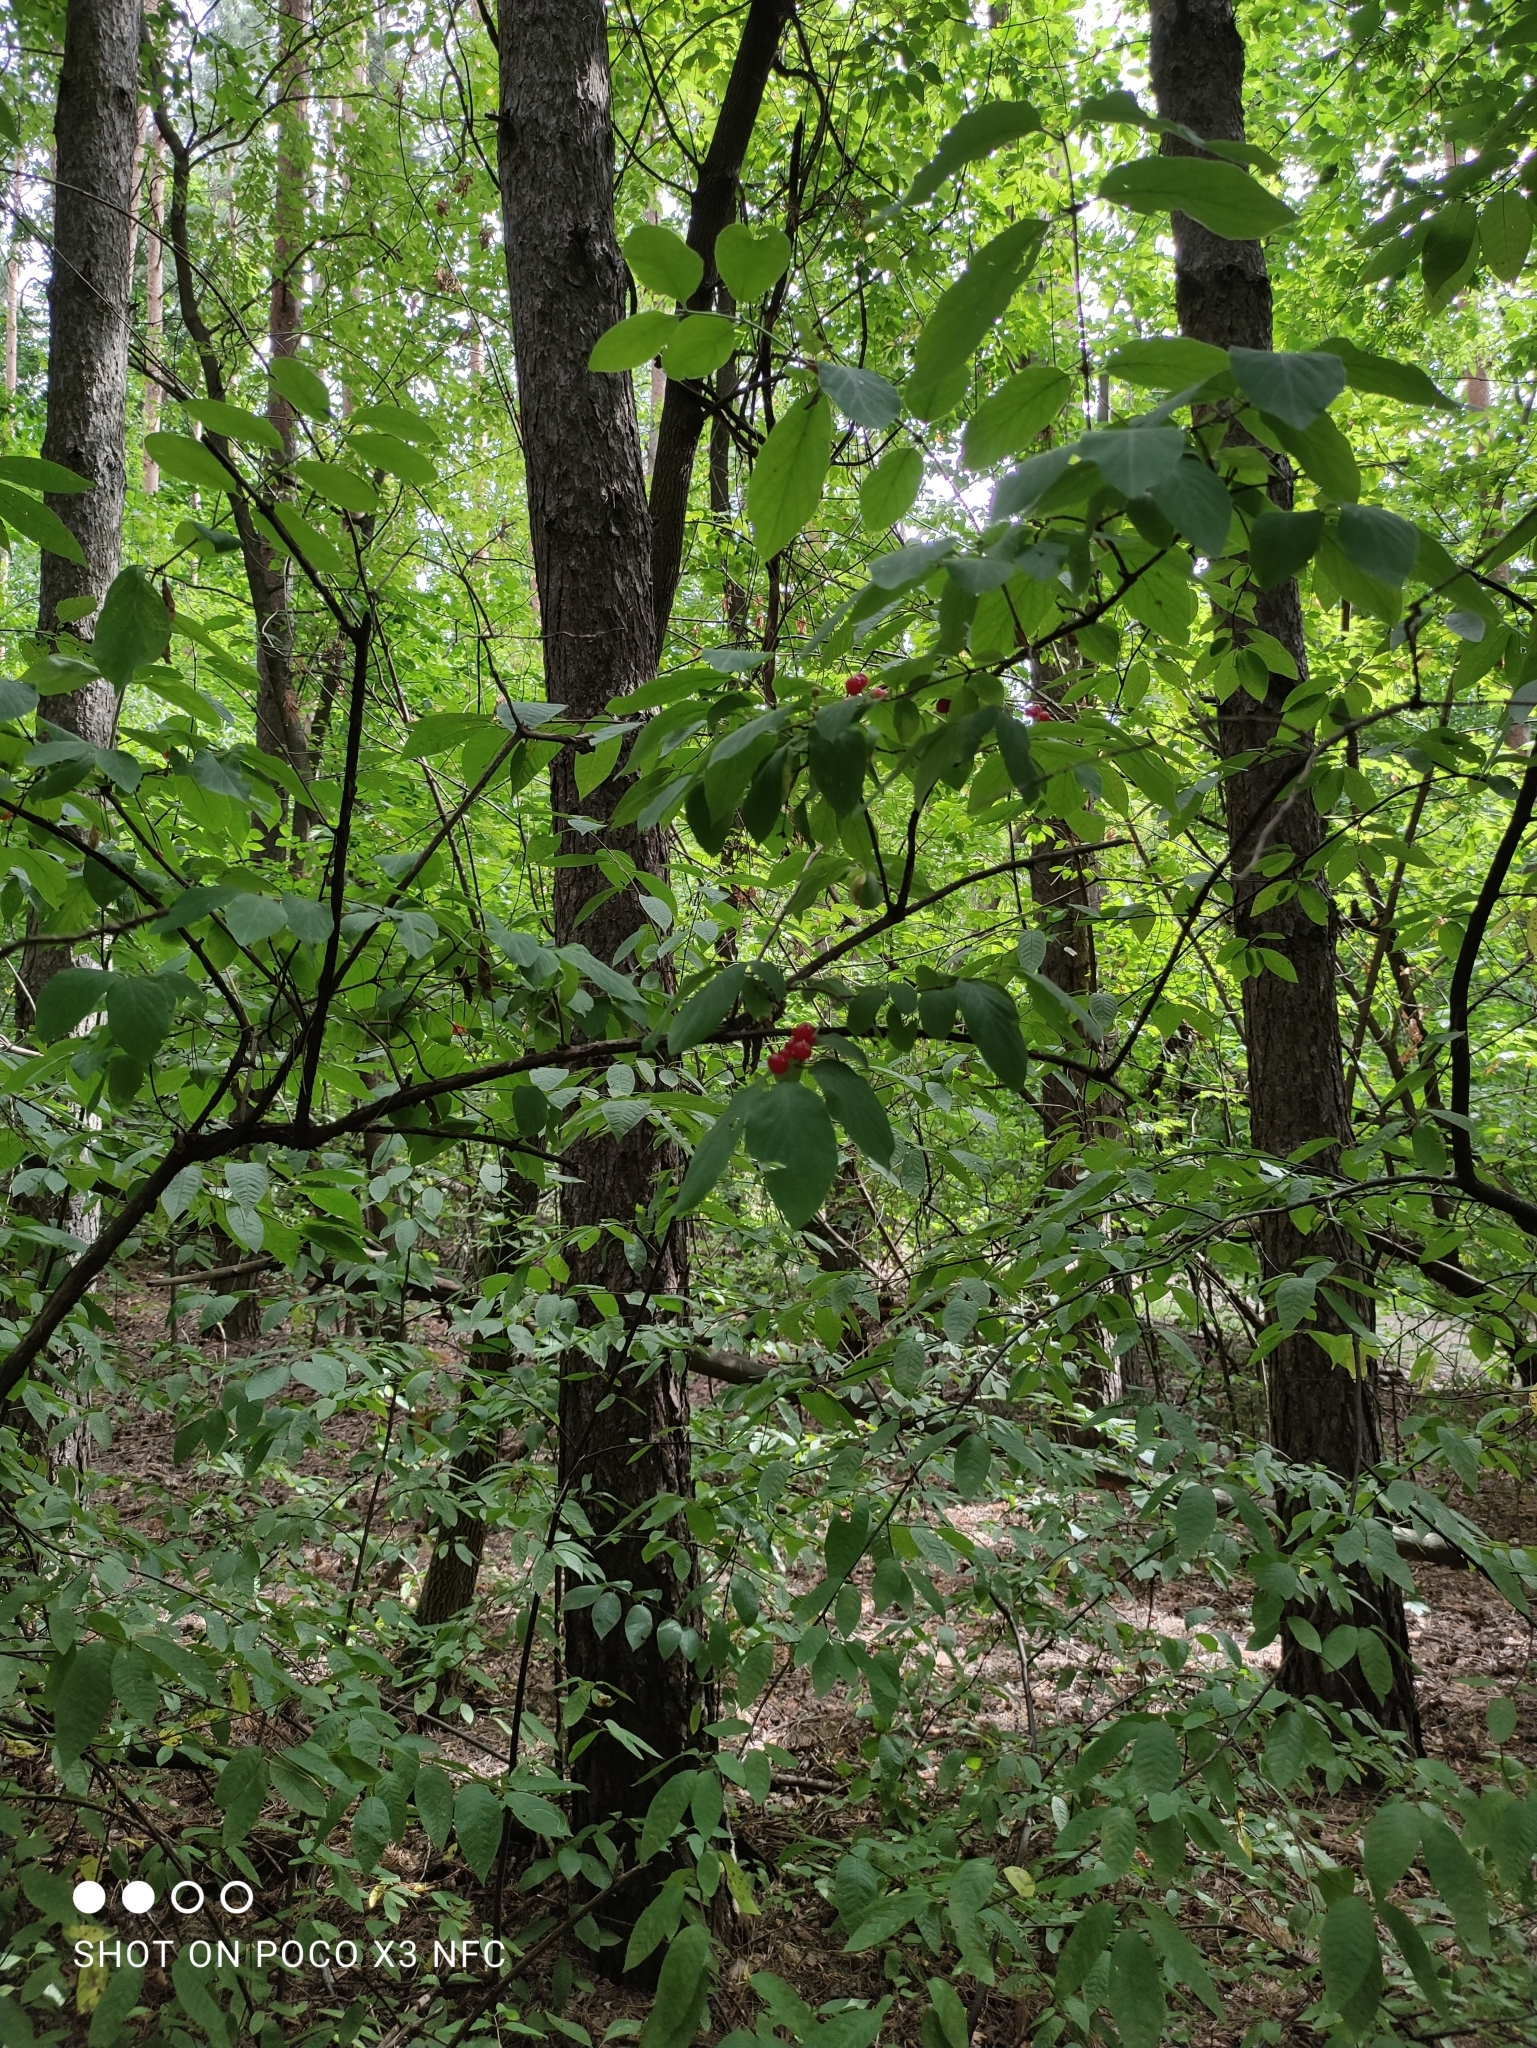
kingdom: Plantae
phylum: Tracheophyta
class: Magnoliopsida
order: Dipsacales
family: Caprifoliaceae
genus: Lonicera
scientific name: Lonicera xylosteum
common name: Fly honeysuckle
